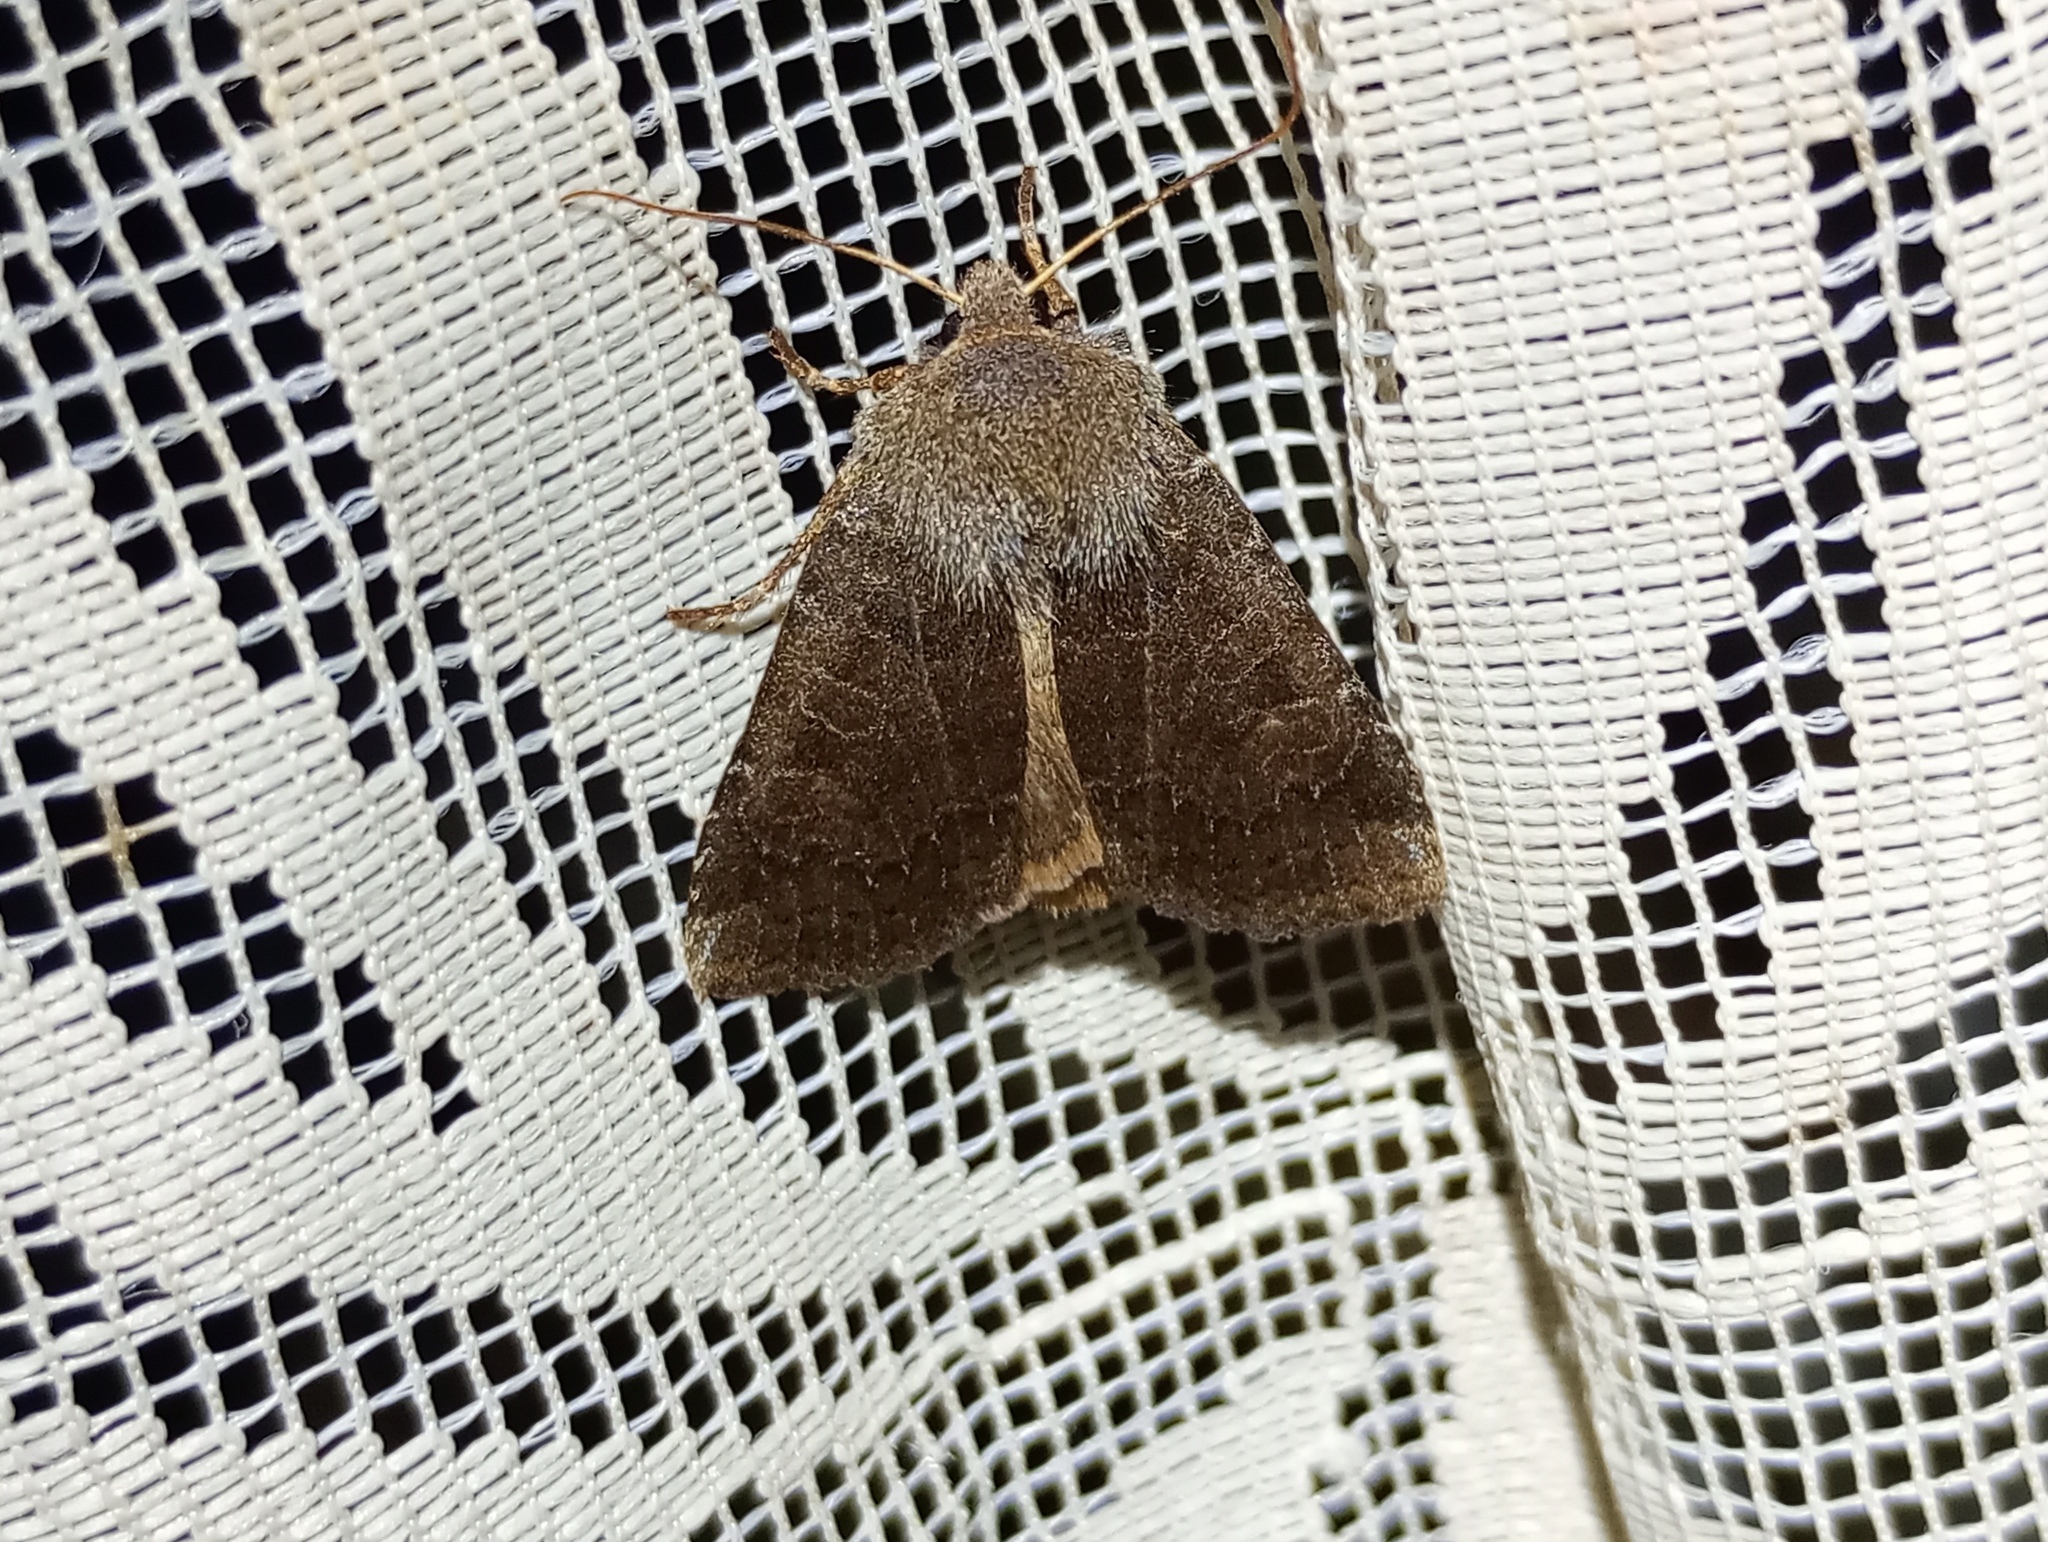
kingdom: Animalia
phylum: Arthropoda
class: Insecta
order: Lepidoptera
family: Noctuidae
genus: Conistra
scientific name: Conistra vaccinii
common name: Chestnut
